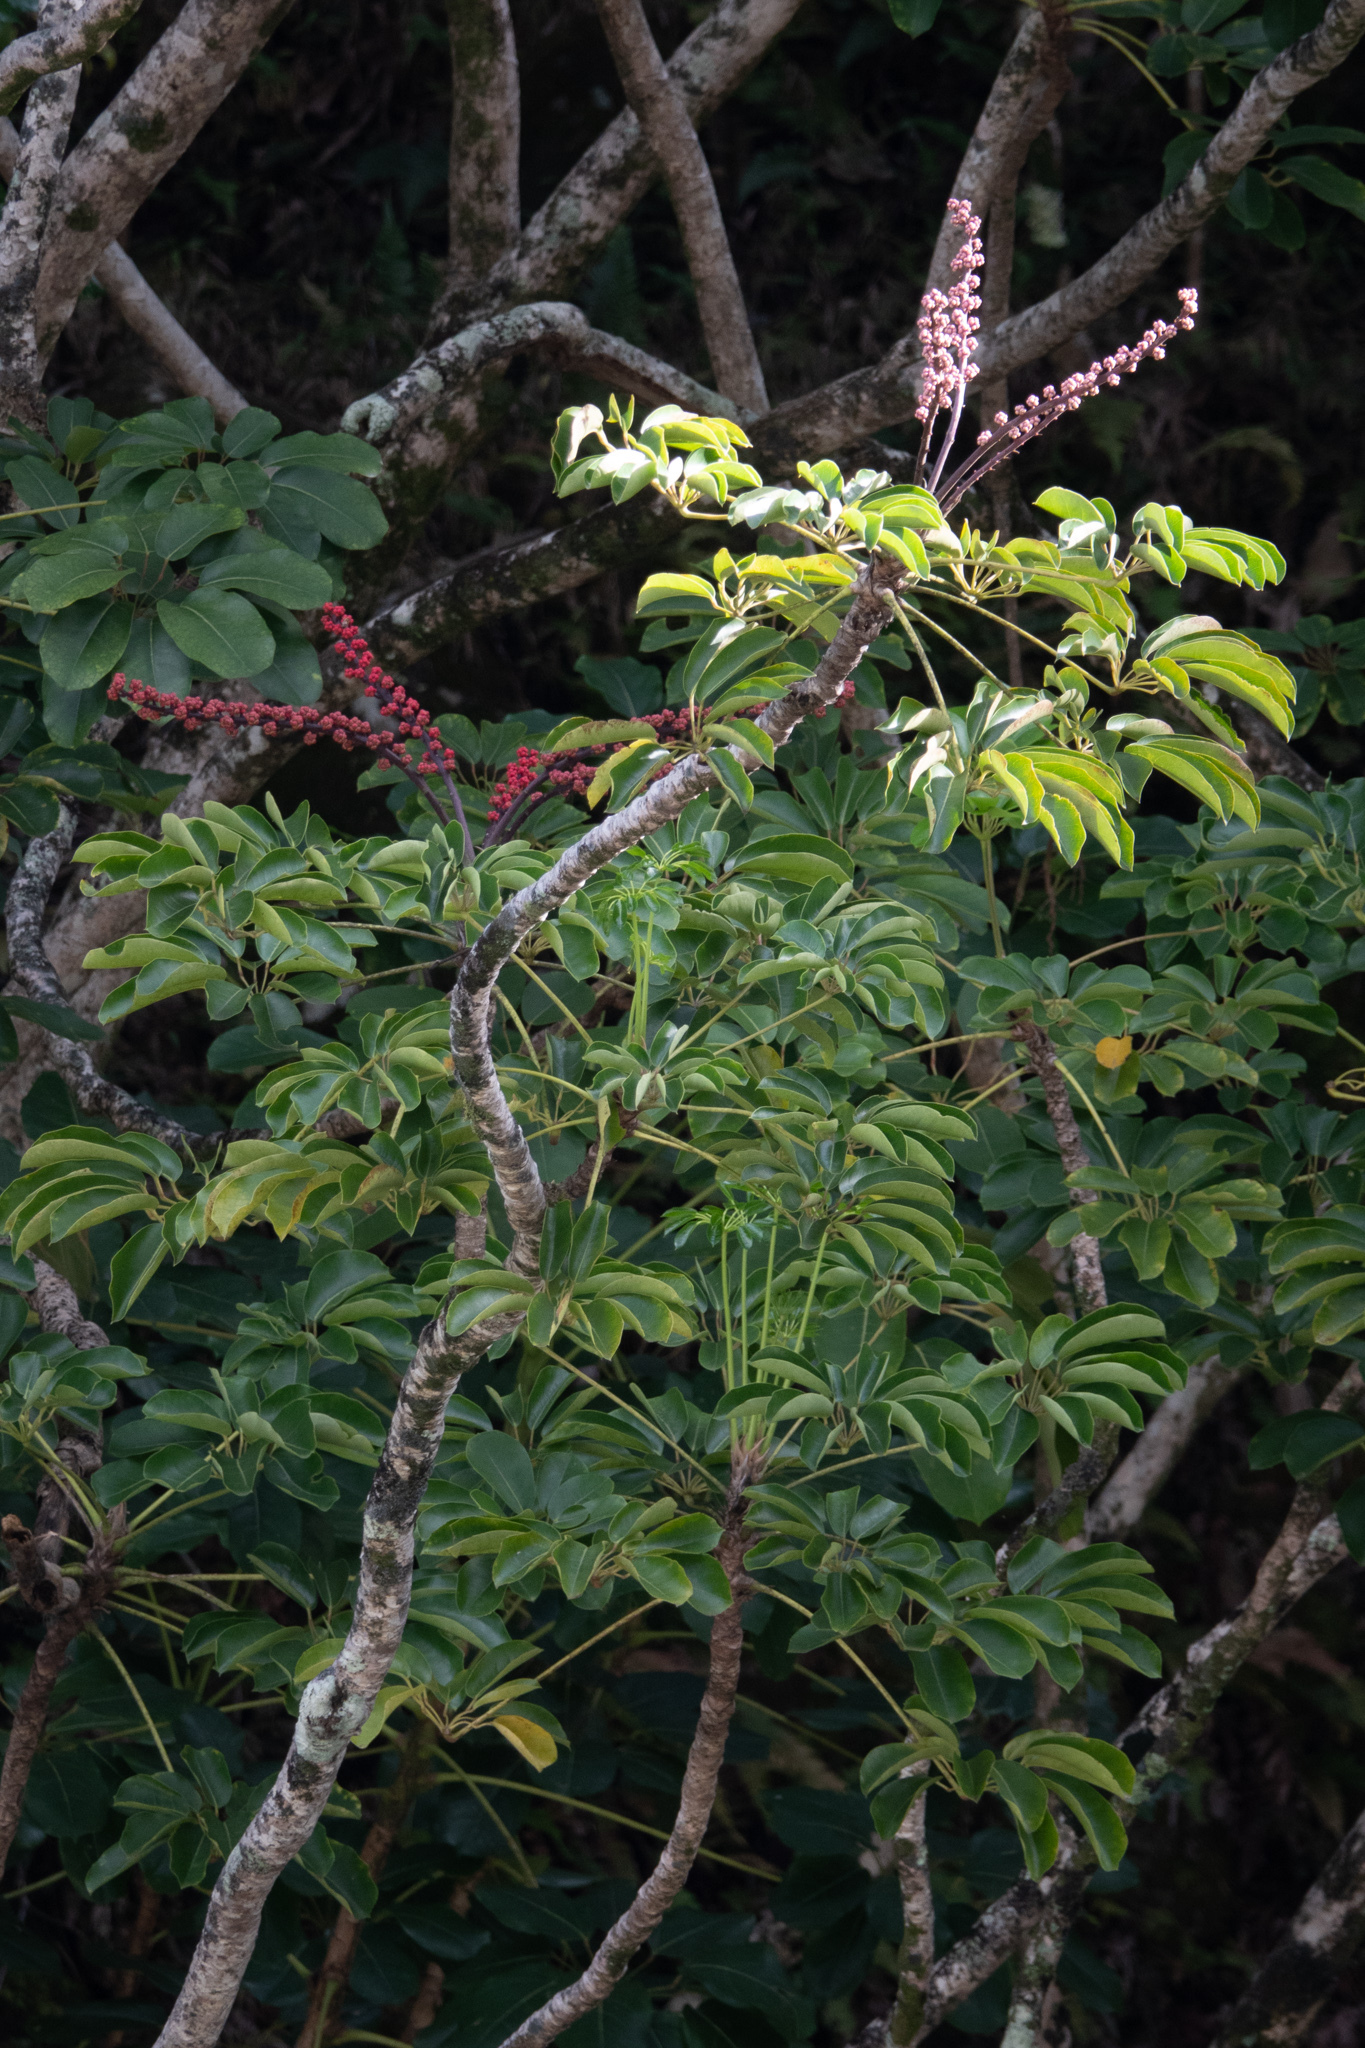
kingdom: Plantae
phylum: Tracheophyta
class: Magnoliopsida
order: Apiales
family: Araliaceae
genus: Heptapleurum
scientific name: Heptapleurum actinophyllum
